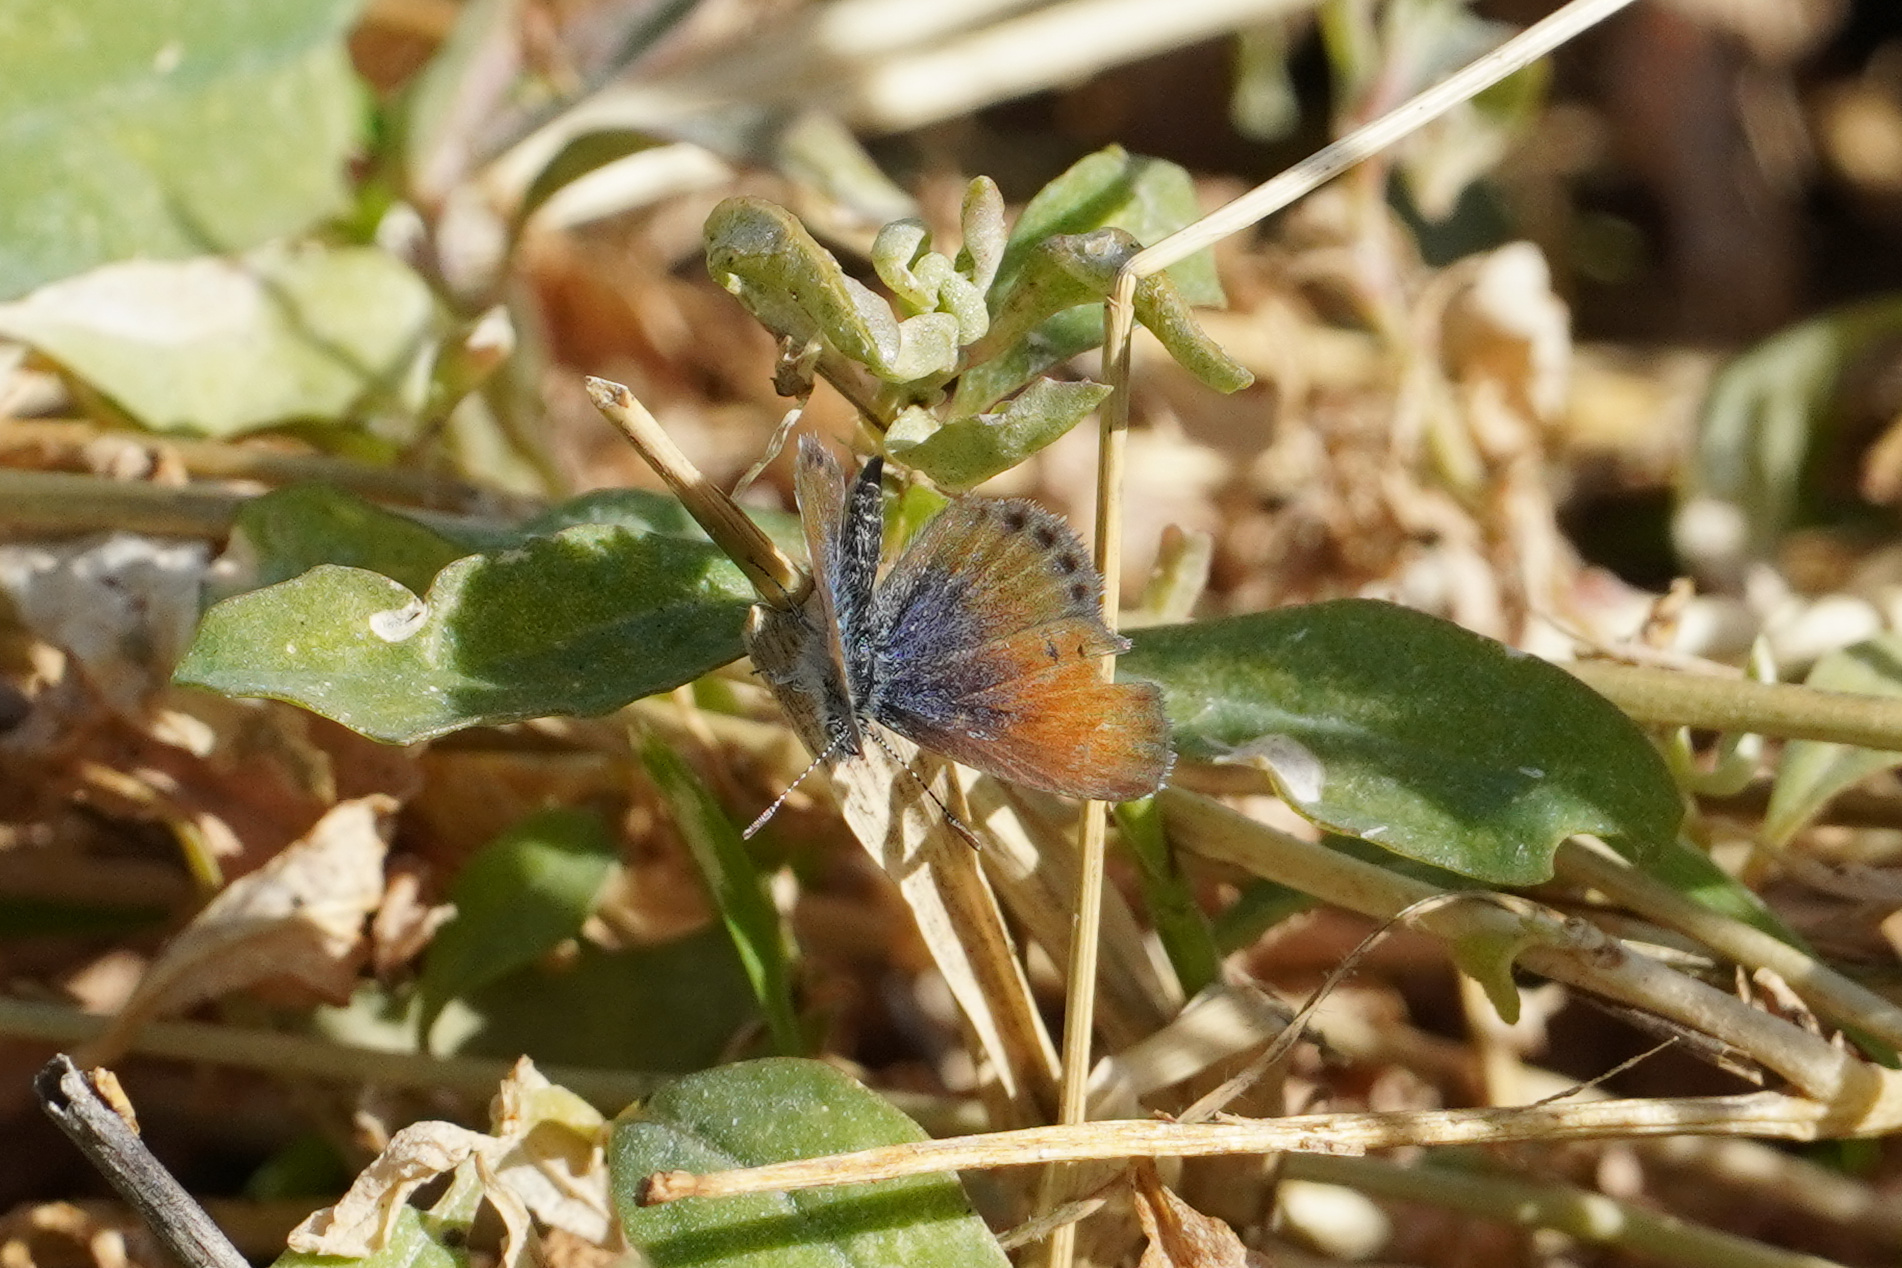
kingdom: Animalia
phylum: Arthropoda
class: Insecta
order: Lepidoptera
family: Lycaenidae
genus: Brephidium
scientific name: Brephidium exilis
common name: Pygmy blue
